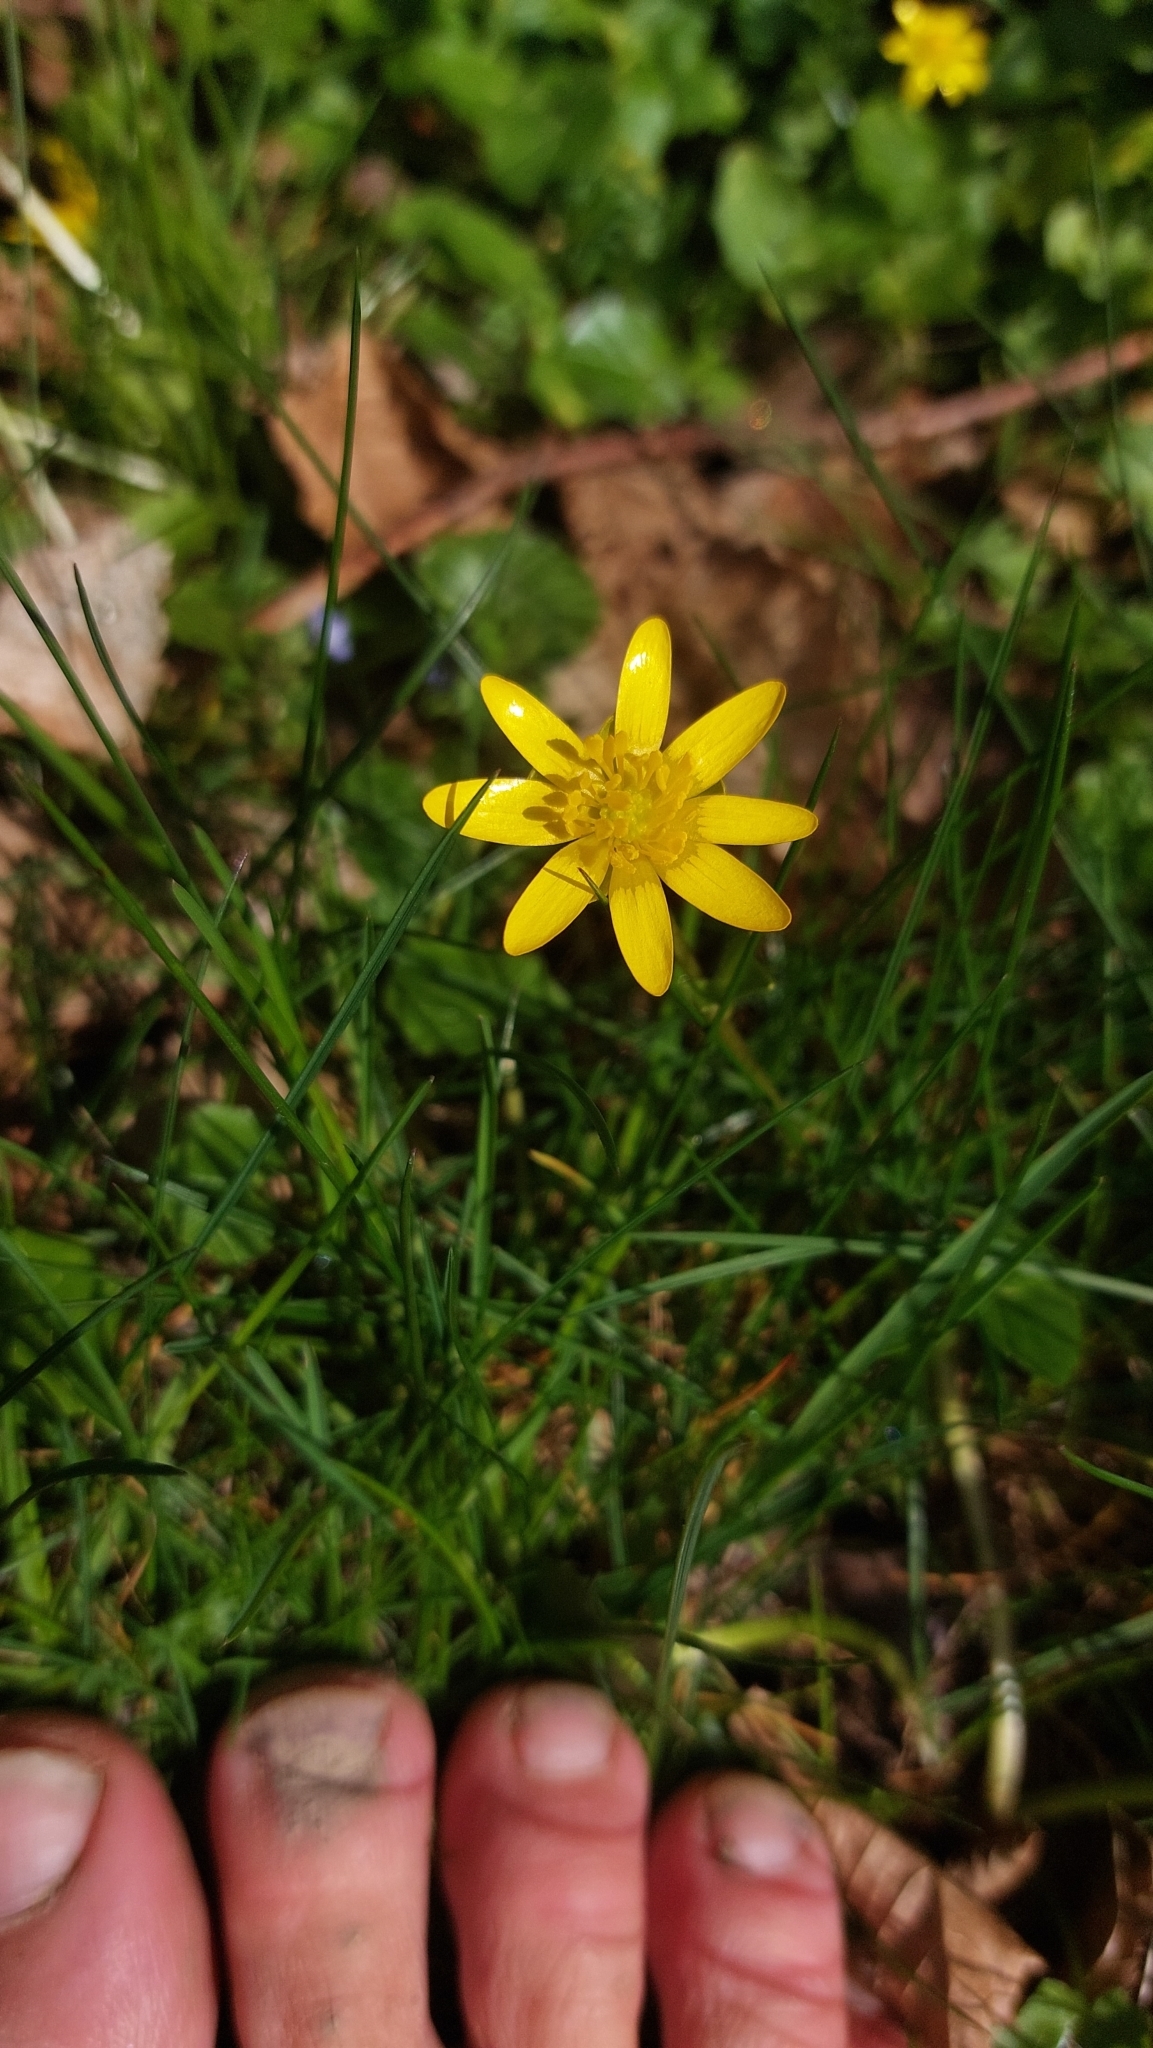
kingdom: Plantae
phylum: Tracheophyta
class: Magnoliopsida
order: Ranunculales
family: Ranunculaceae
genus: Ficaria
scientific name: Ficaria verna
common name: Lesser celandine
